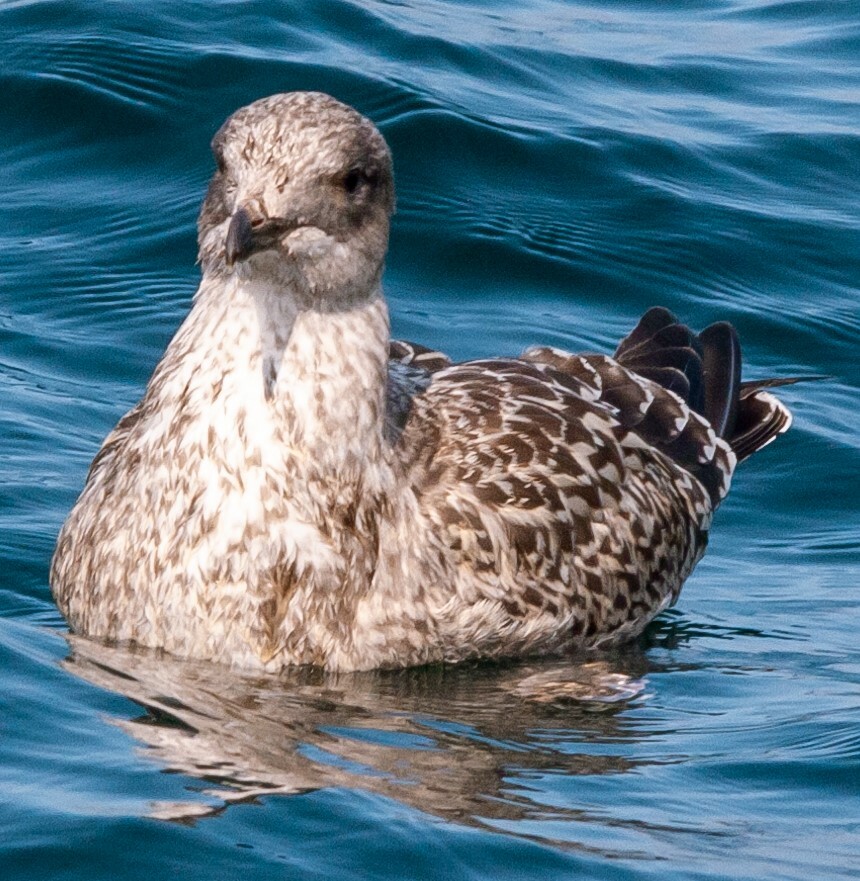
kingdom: Animalia
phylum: Chordata
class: Aves
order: Charadriiformes
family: Laridae
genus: Larus
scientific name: Larus argentatus
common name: Herring gull
